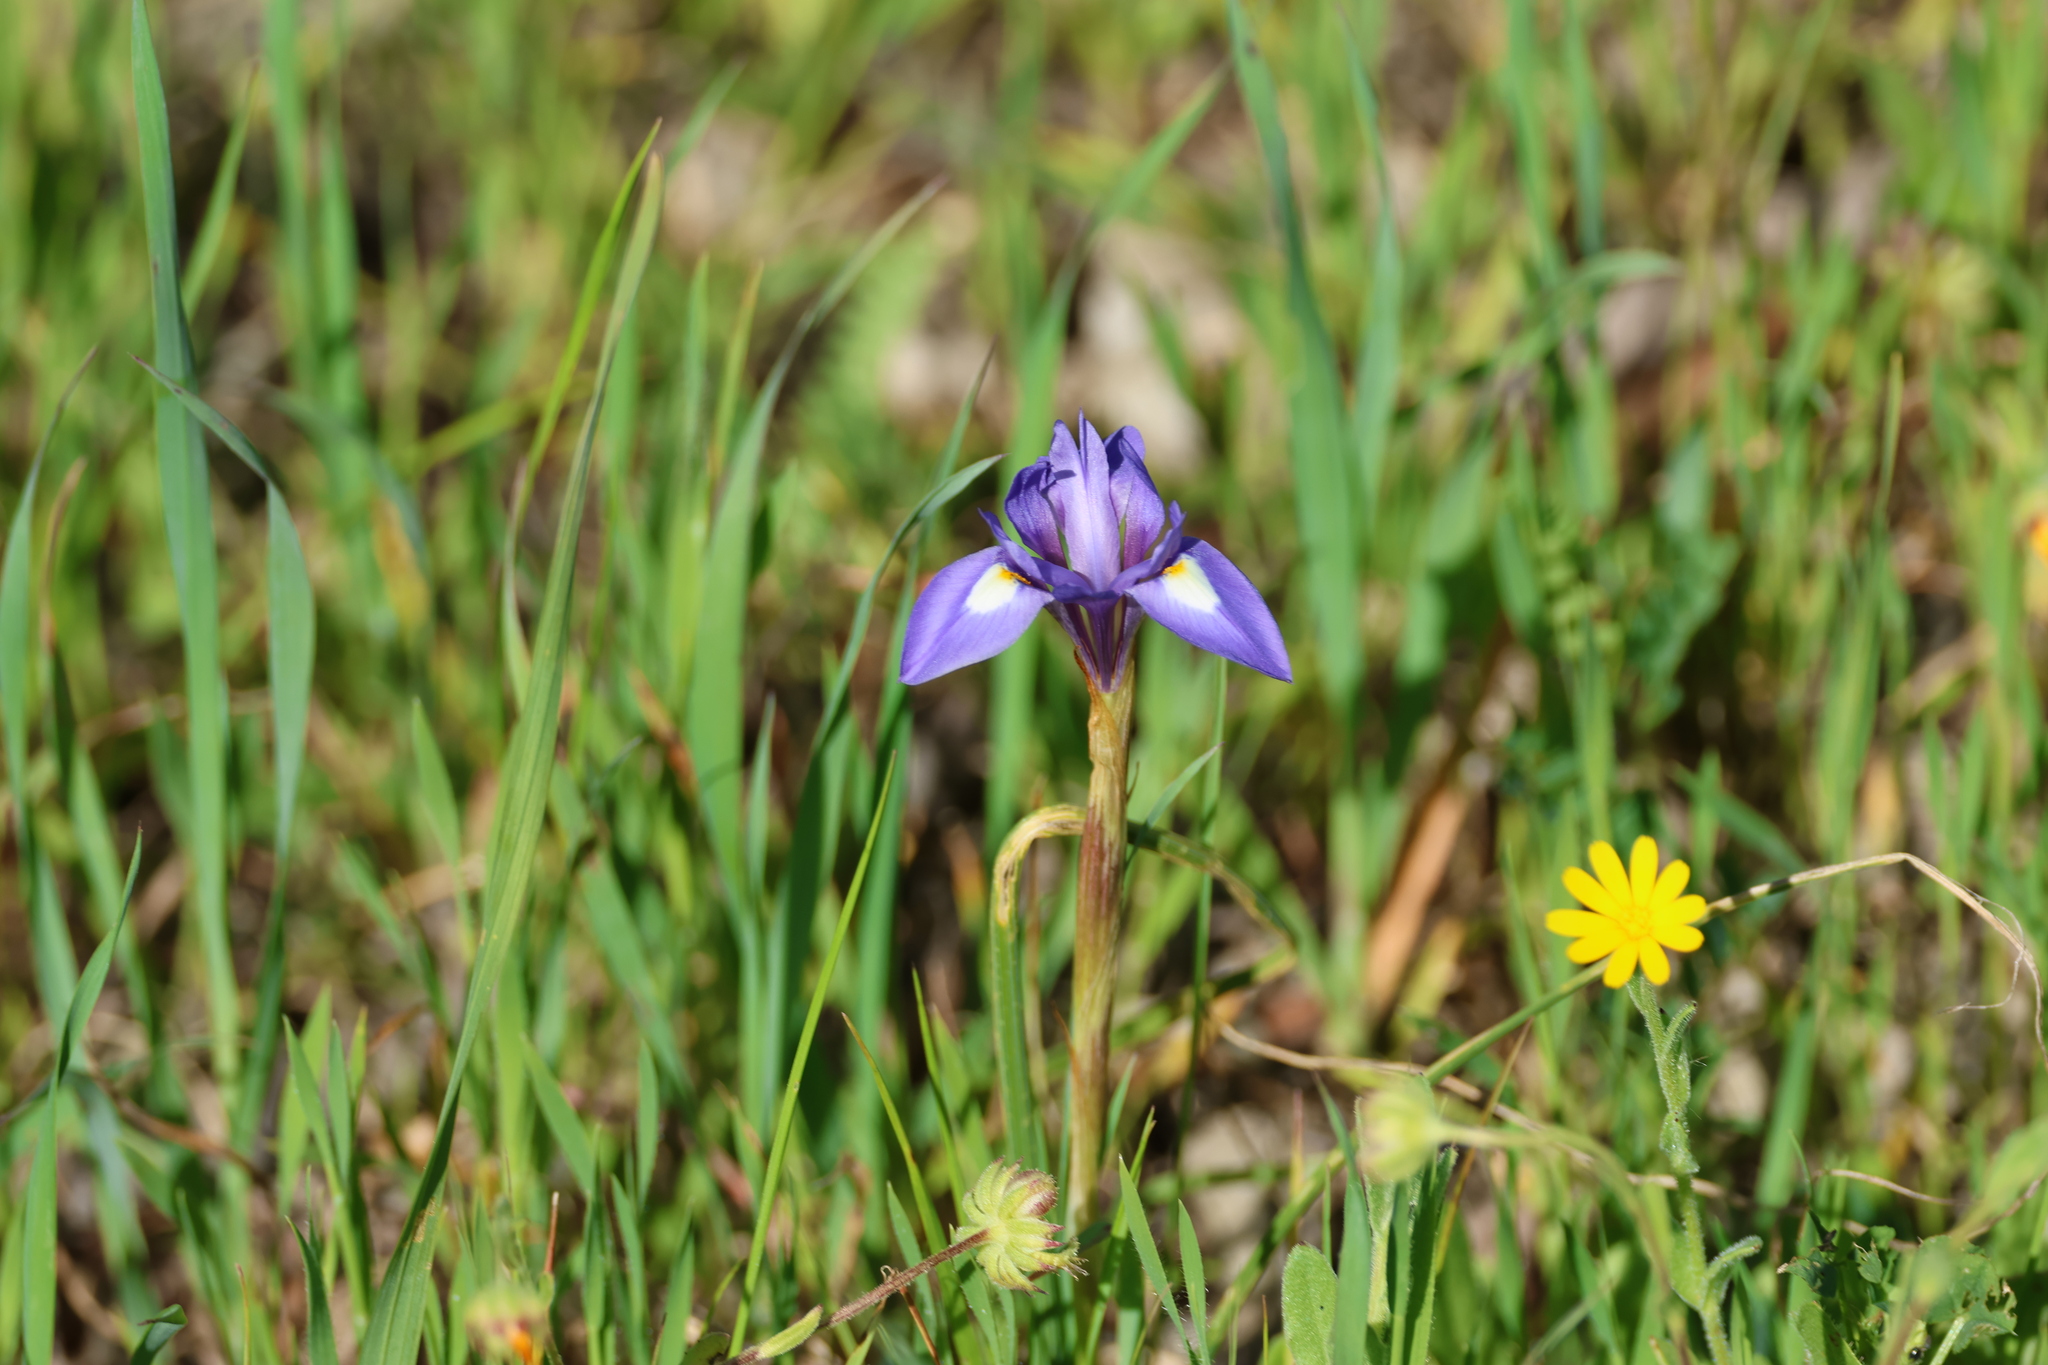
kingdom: Plantae
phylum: Tracheophyta
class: Liliopsida
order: Asparagales
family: Iridaceae
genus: Moraea
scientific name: Moraea sisyrinchium
